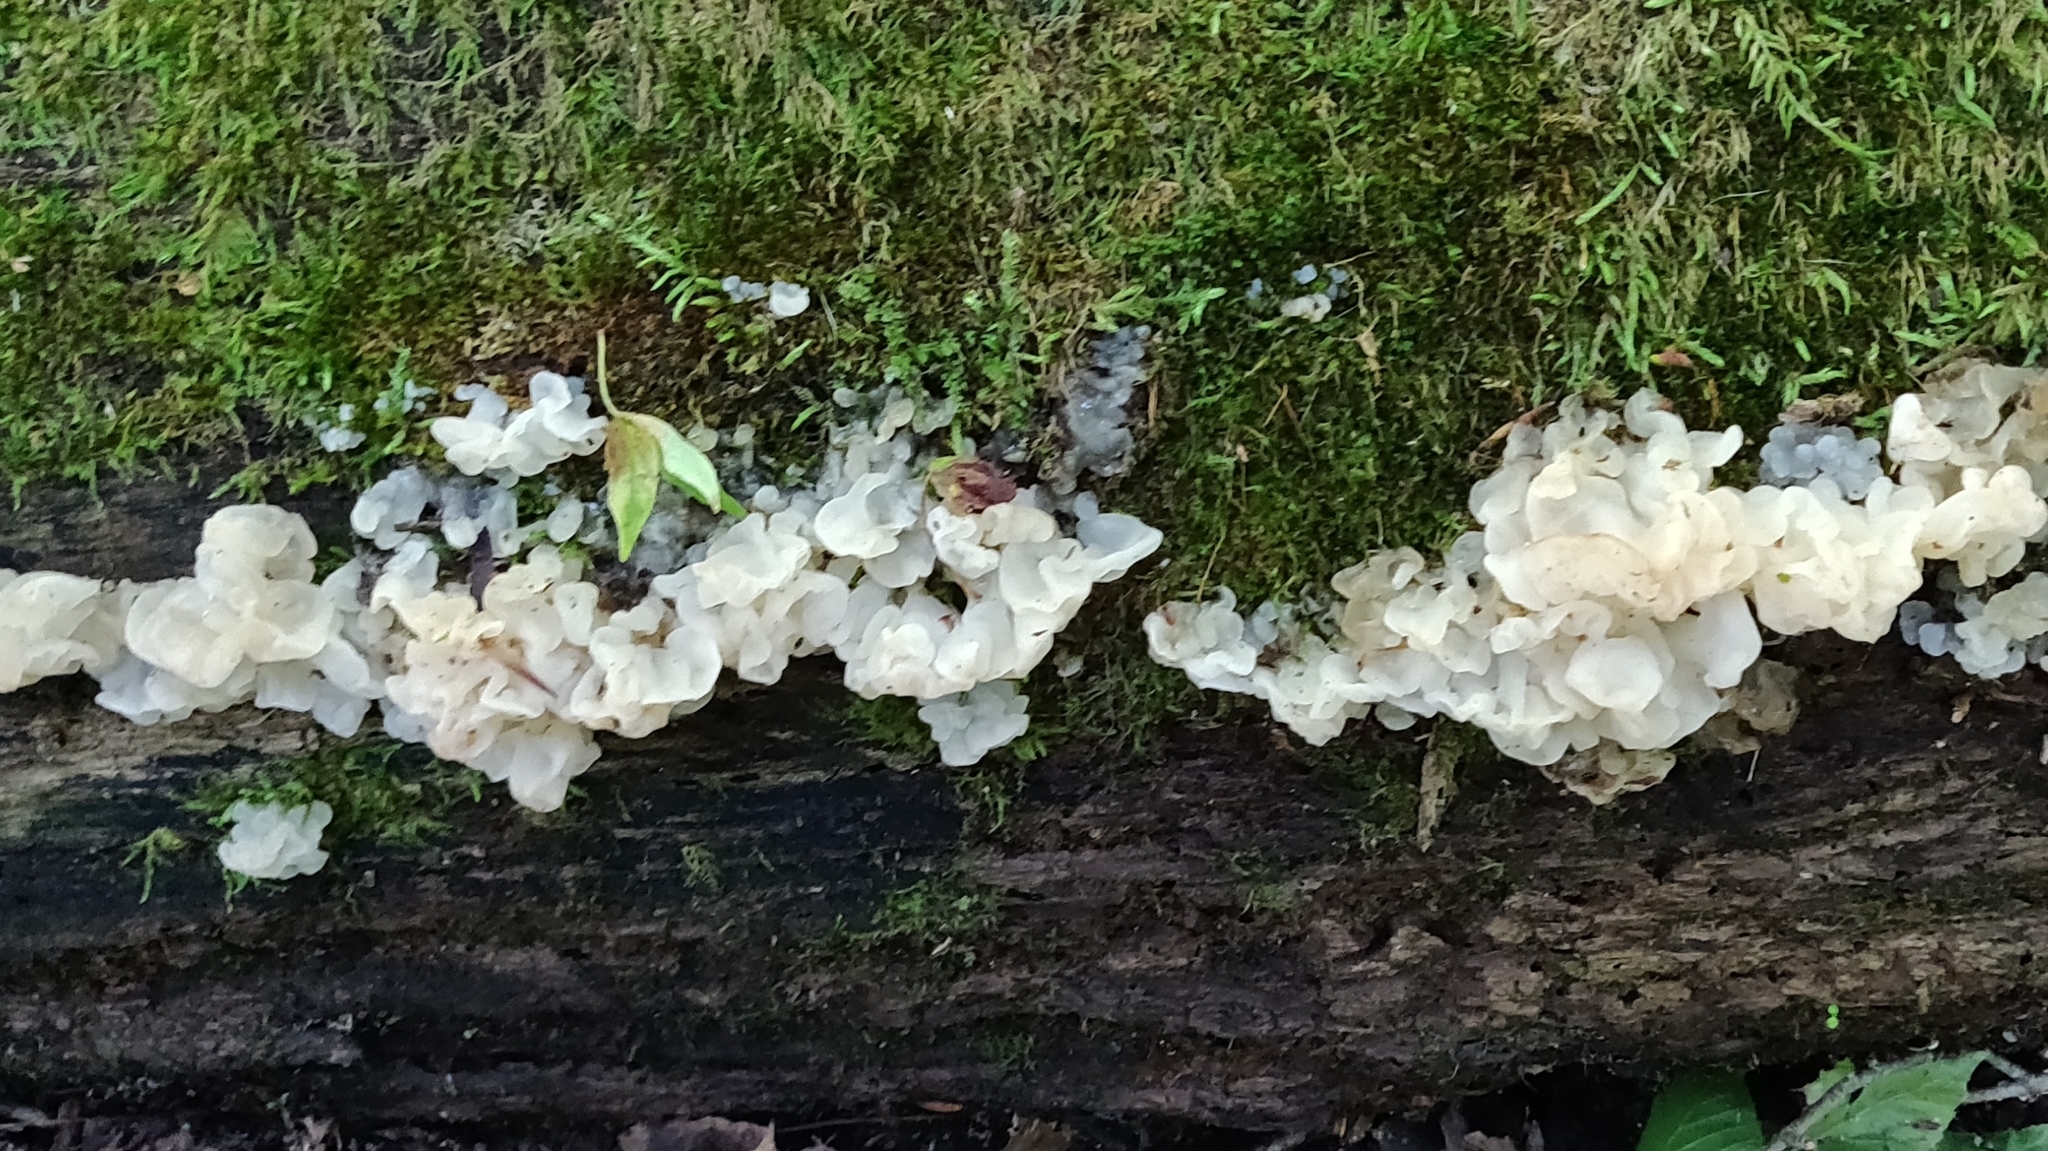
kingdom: Fungi
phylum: Basidiomycota
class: Agaricomycetes
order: Auriculariales
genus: Ductifera
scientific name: Ductifera pululahuana
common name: White jelly fungus
